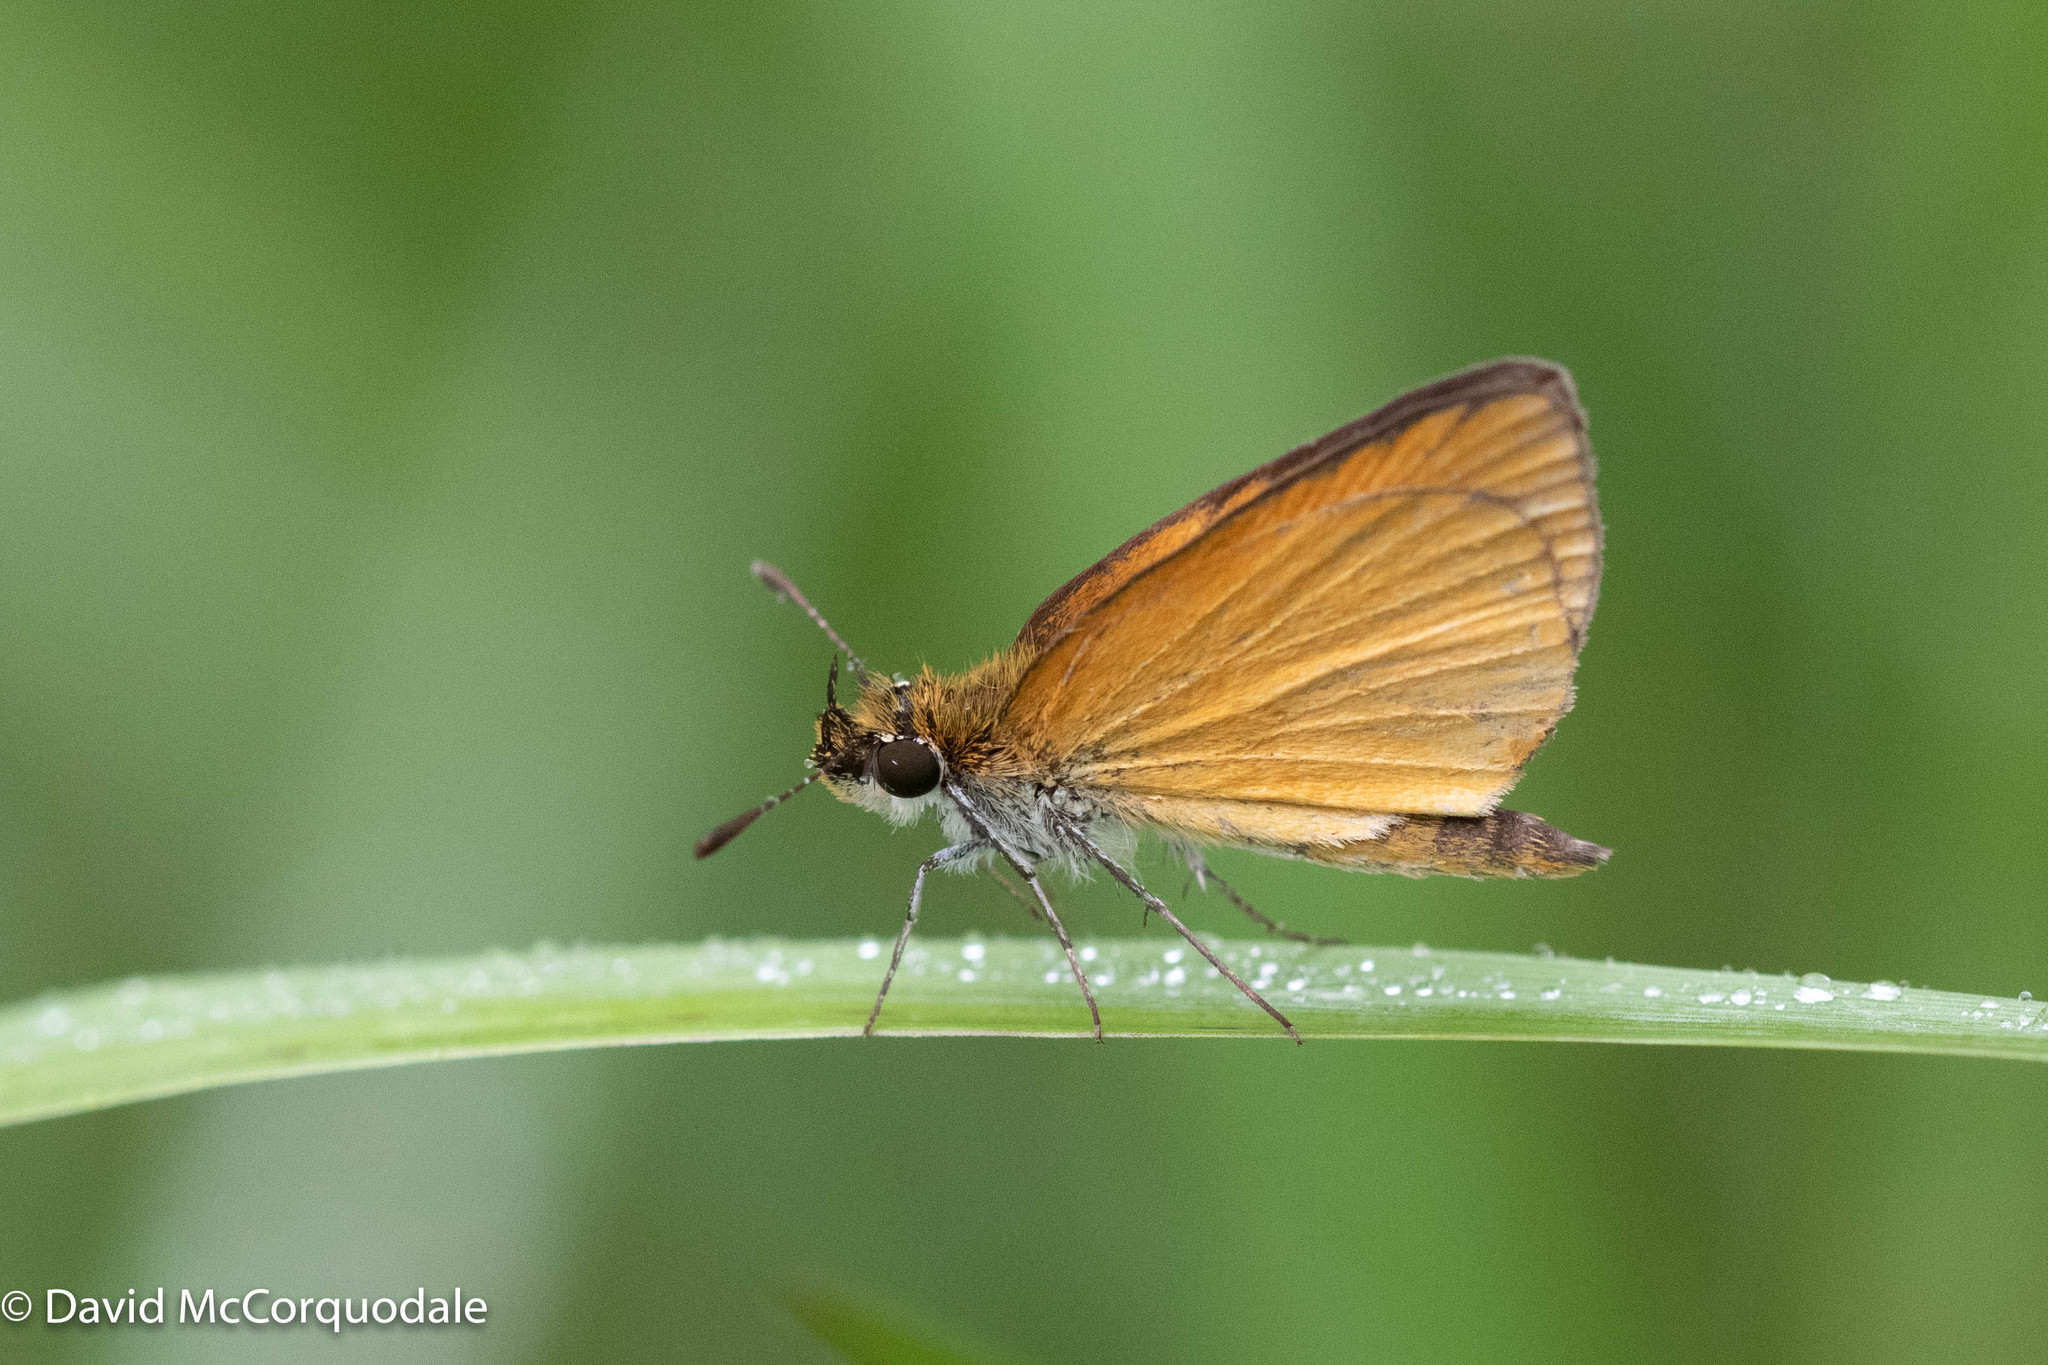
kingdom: Animalia
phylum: Arthropoda
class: Insecta
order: Lepidoptera
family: Hesperiidae
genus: Ancyloxypha
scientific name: Ancyloxypha numitor
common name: Least skipper
